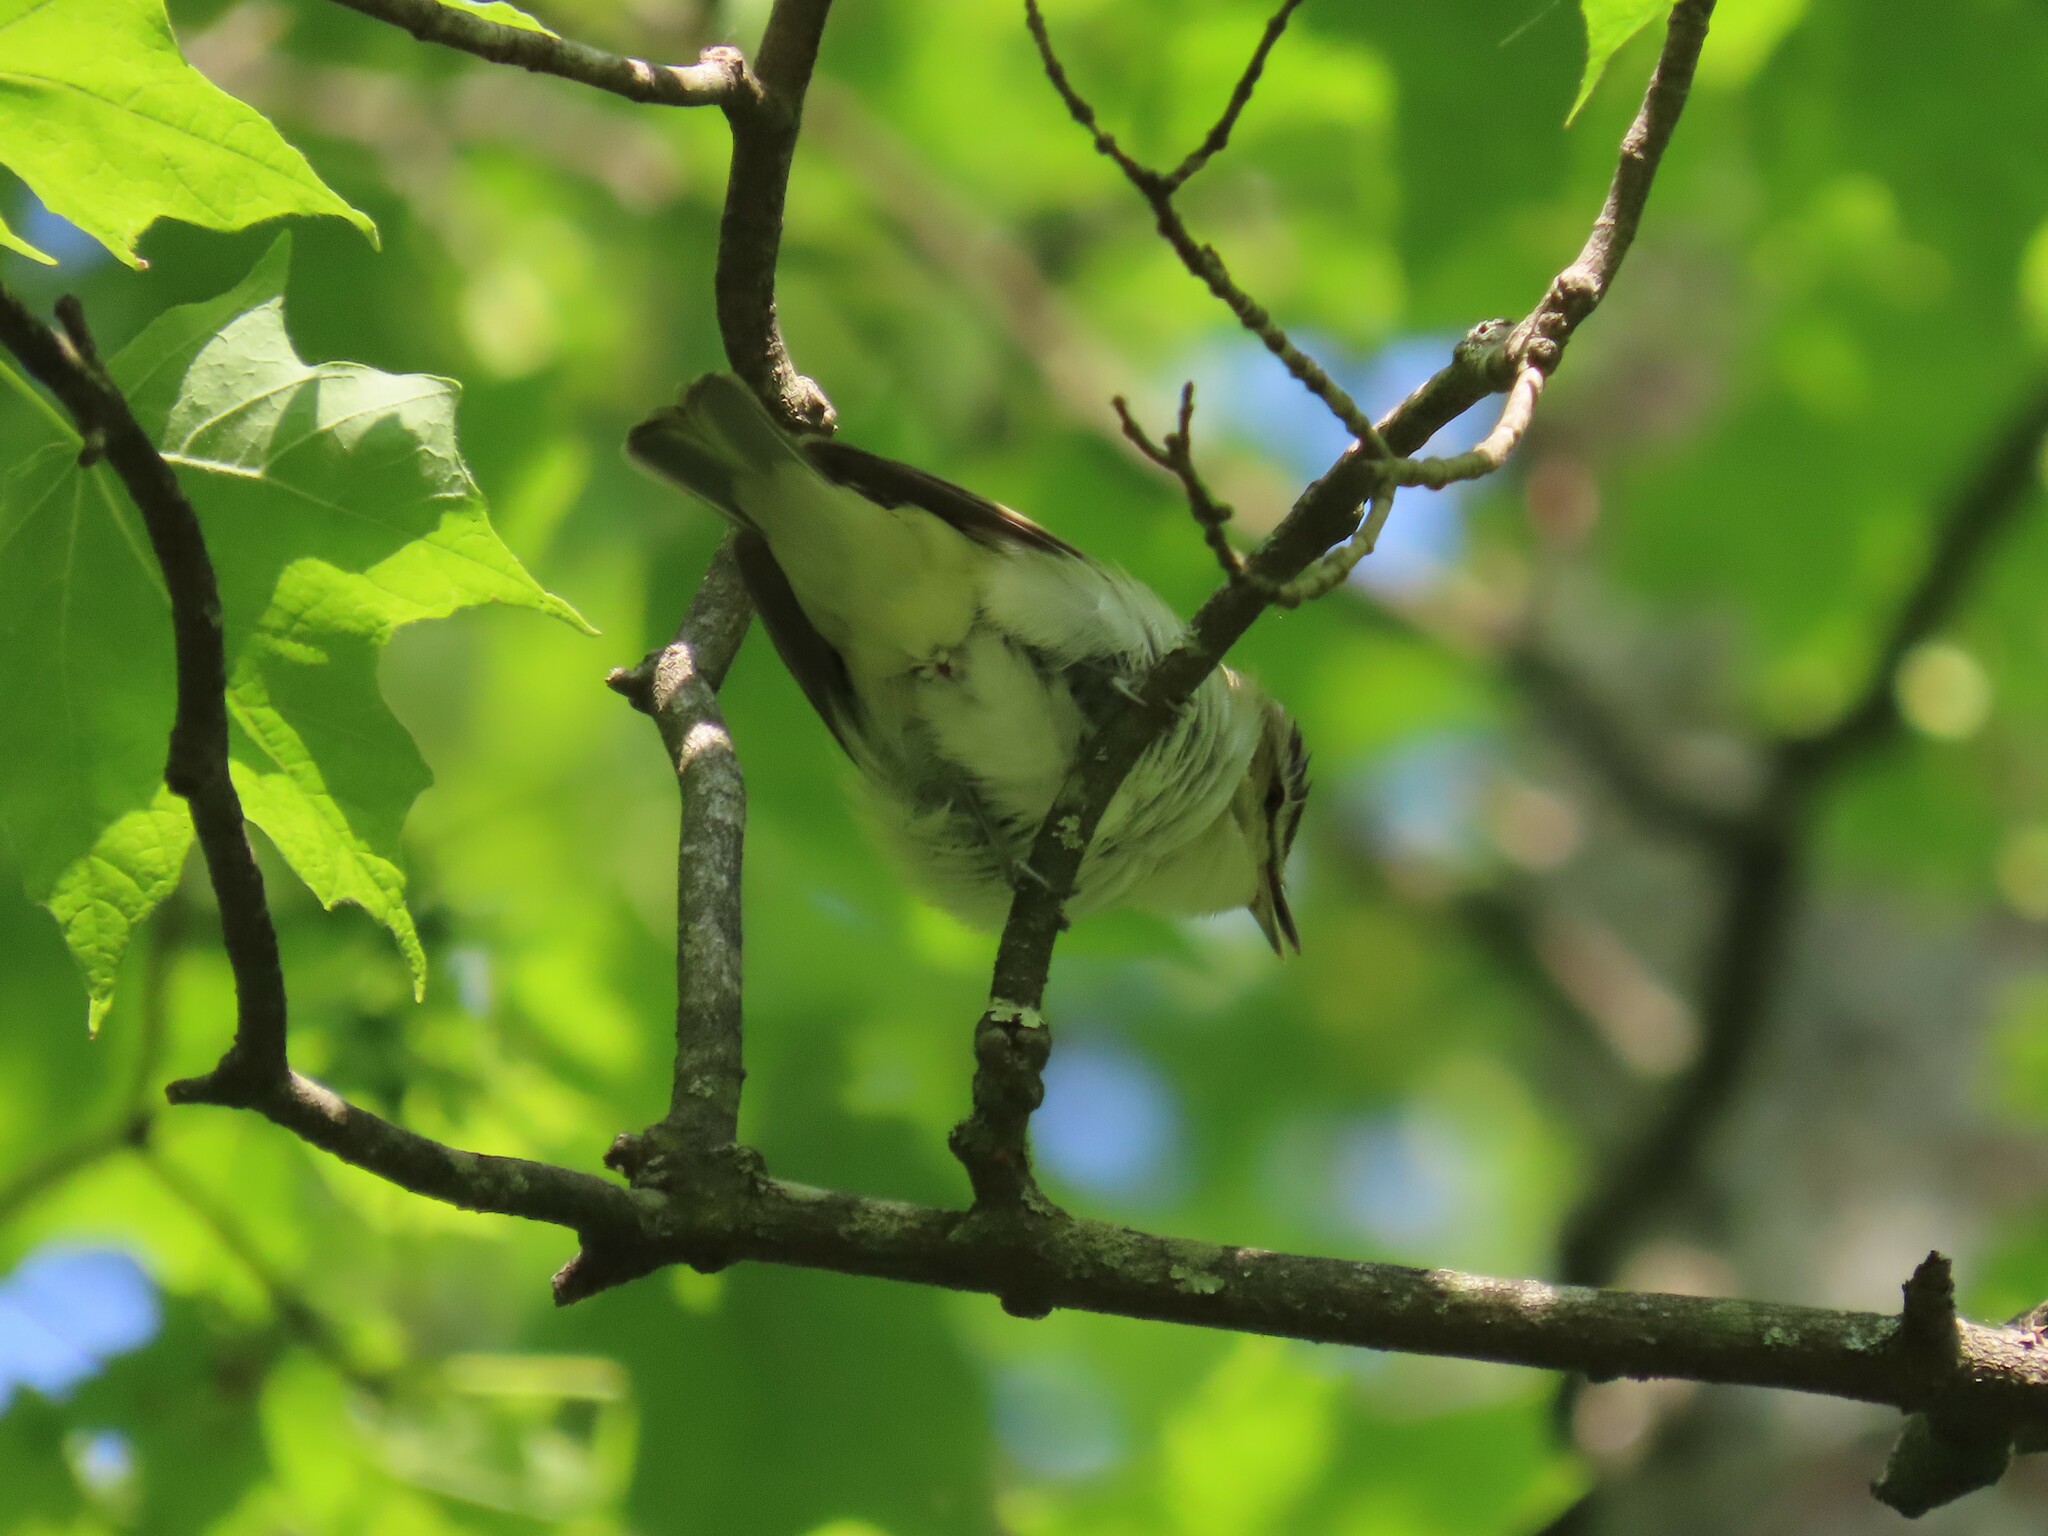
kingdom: Animalia
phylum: Chordata
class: Aves
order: Passeriformes
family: Vireonidae
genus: Vireo
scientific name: Vireo olivaceus
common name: Red-eyed vireo
